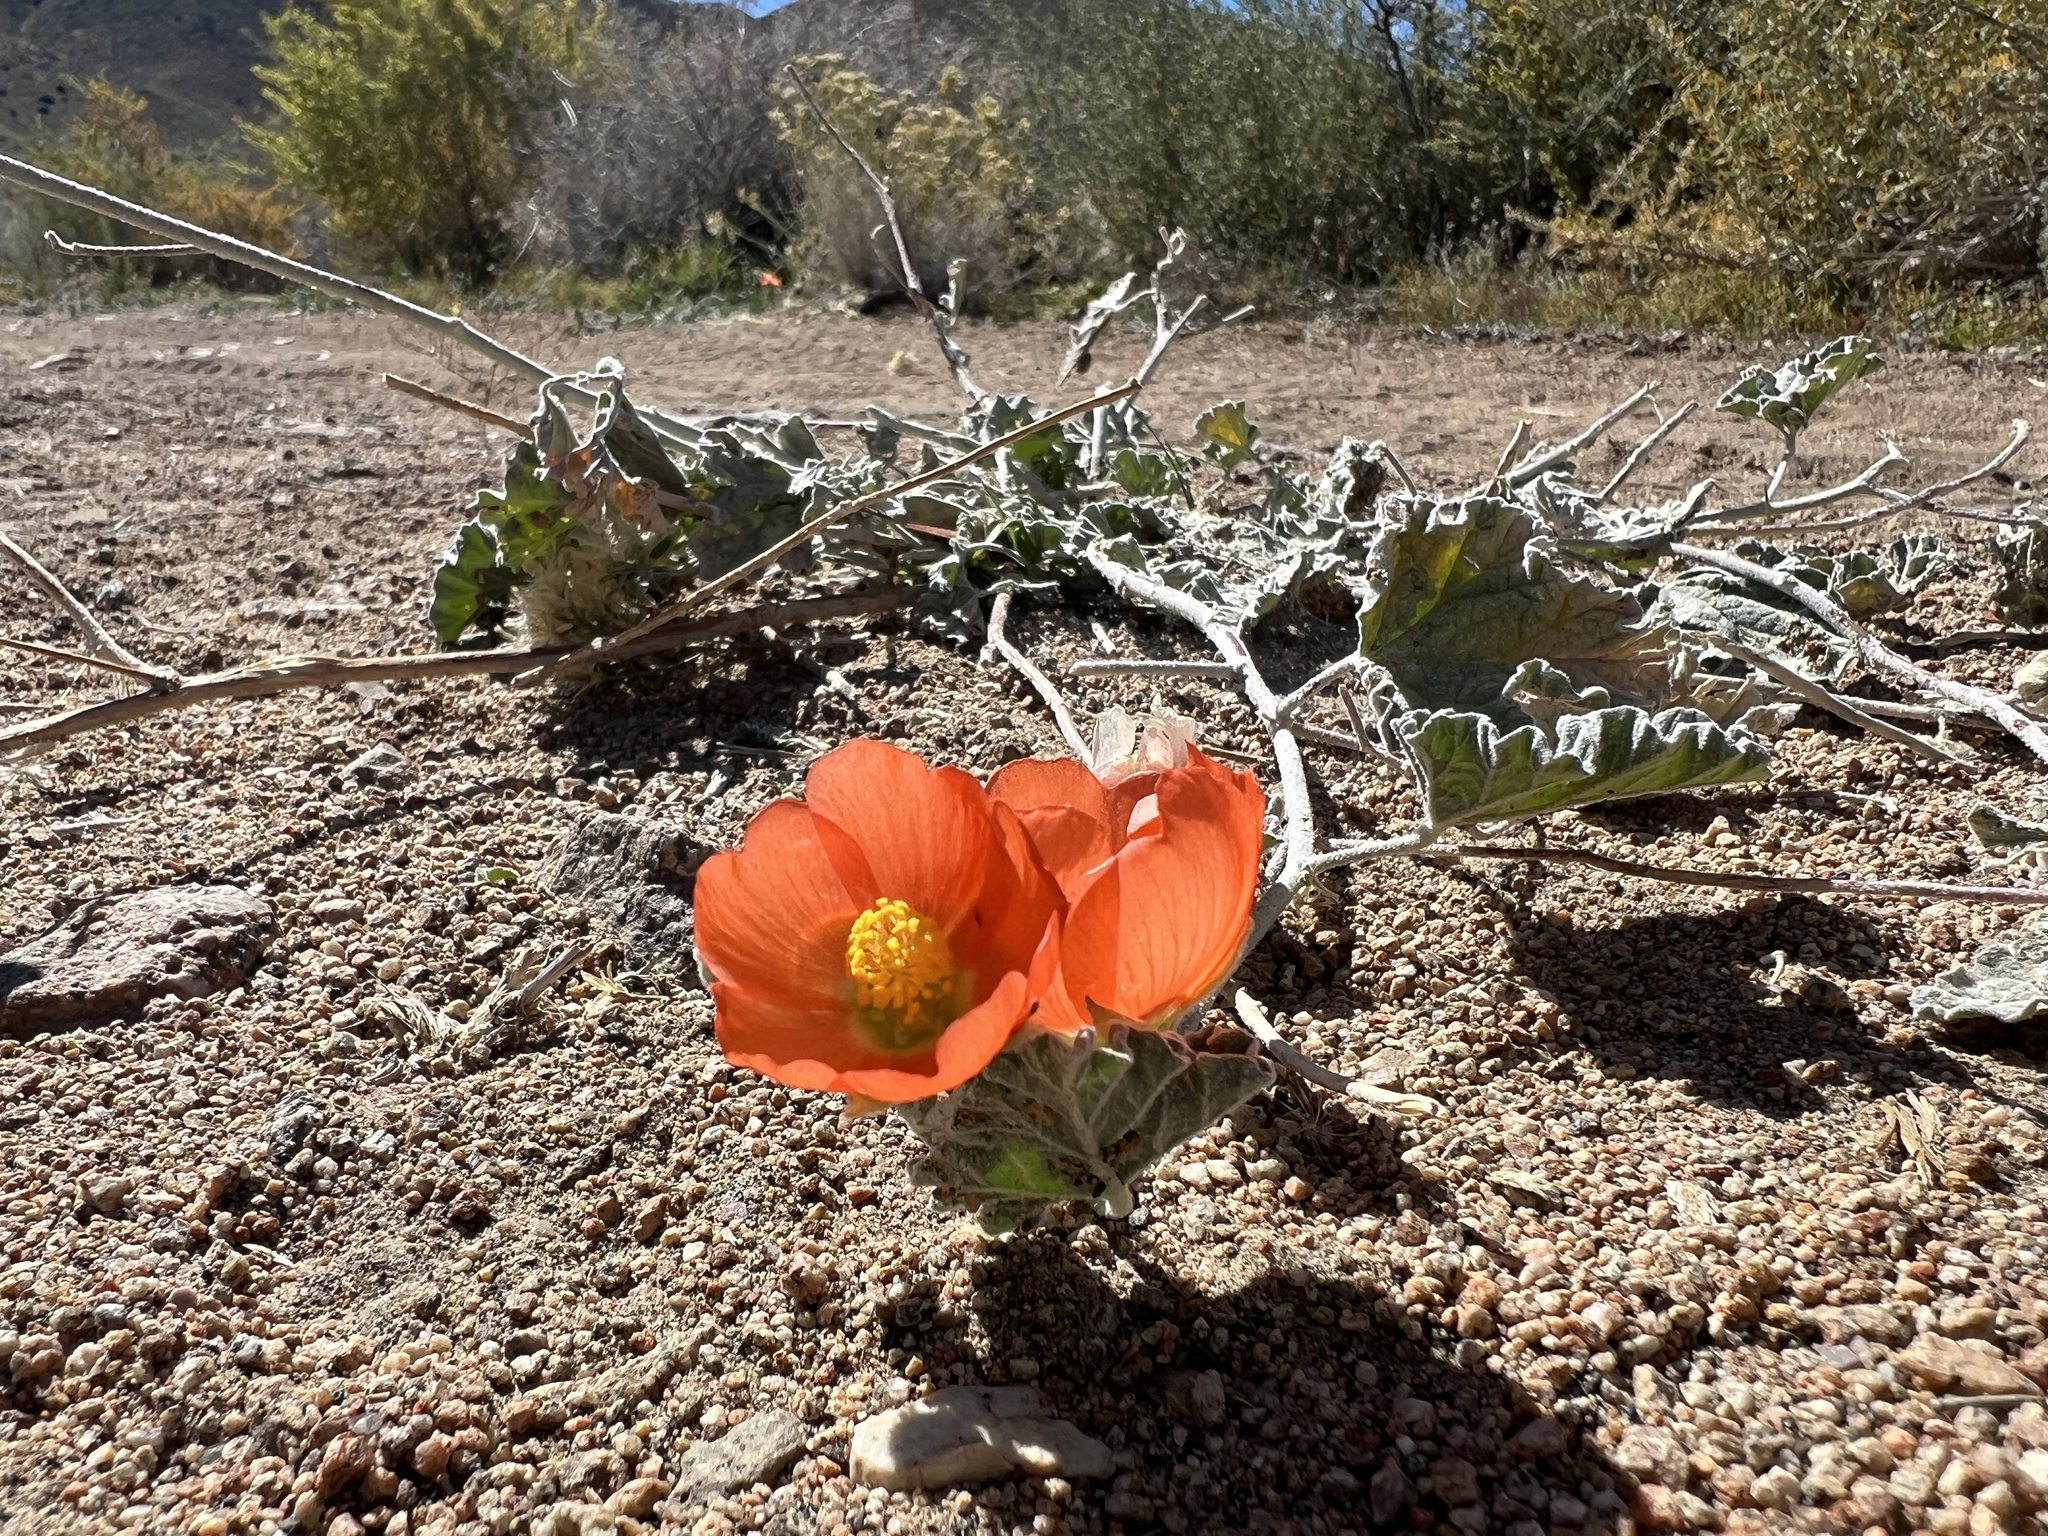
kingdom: Plantae
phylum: Tracheophyta
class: Magnoliopsida
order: Malvales
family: Malvaceae
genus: Sphaeralcea
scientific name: Sphaeralcea ambigua
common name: Apricot globe-mallow
